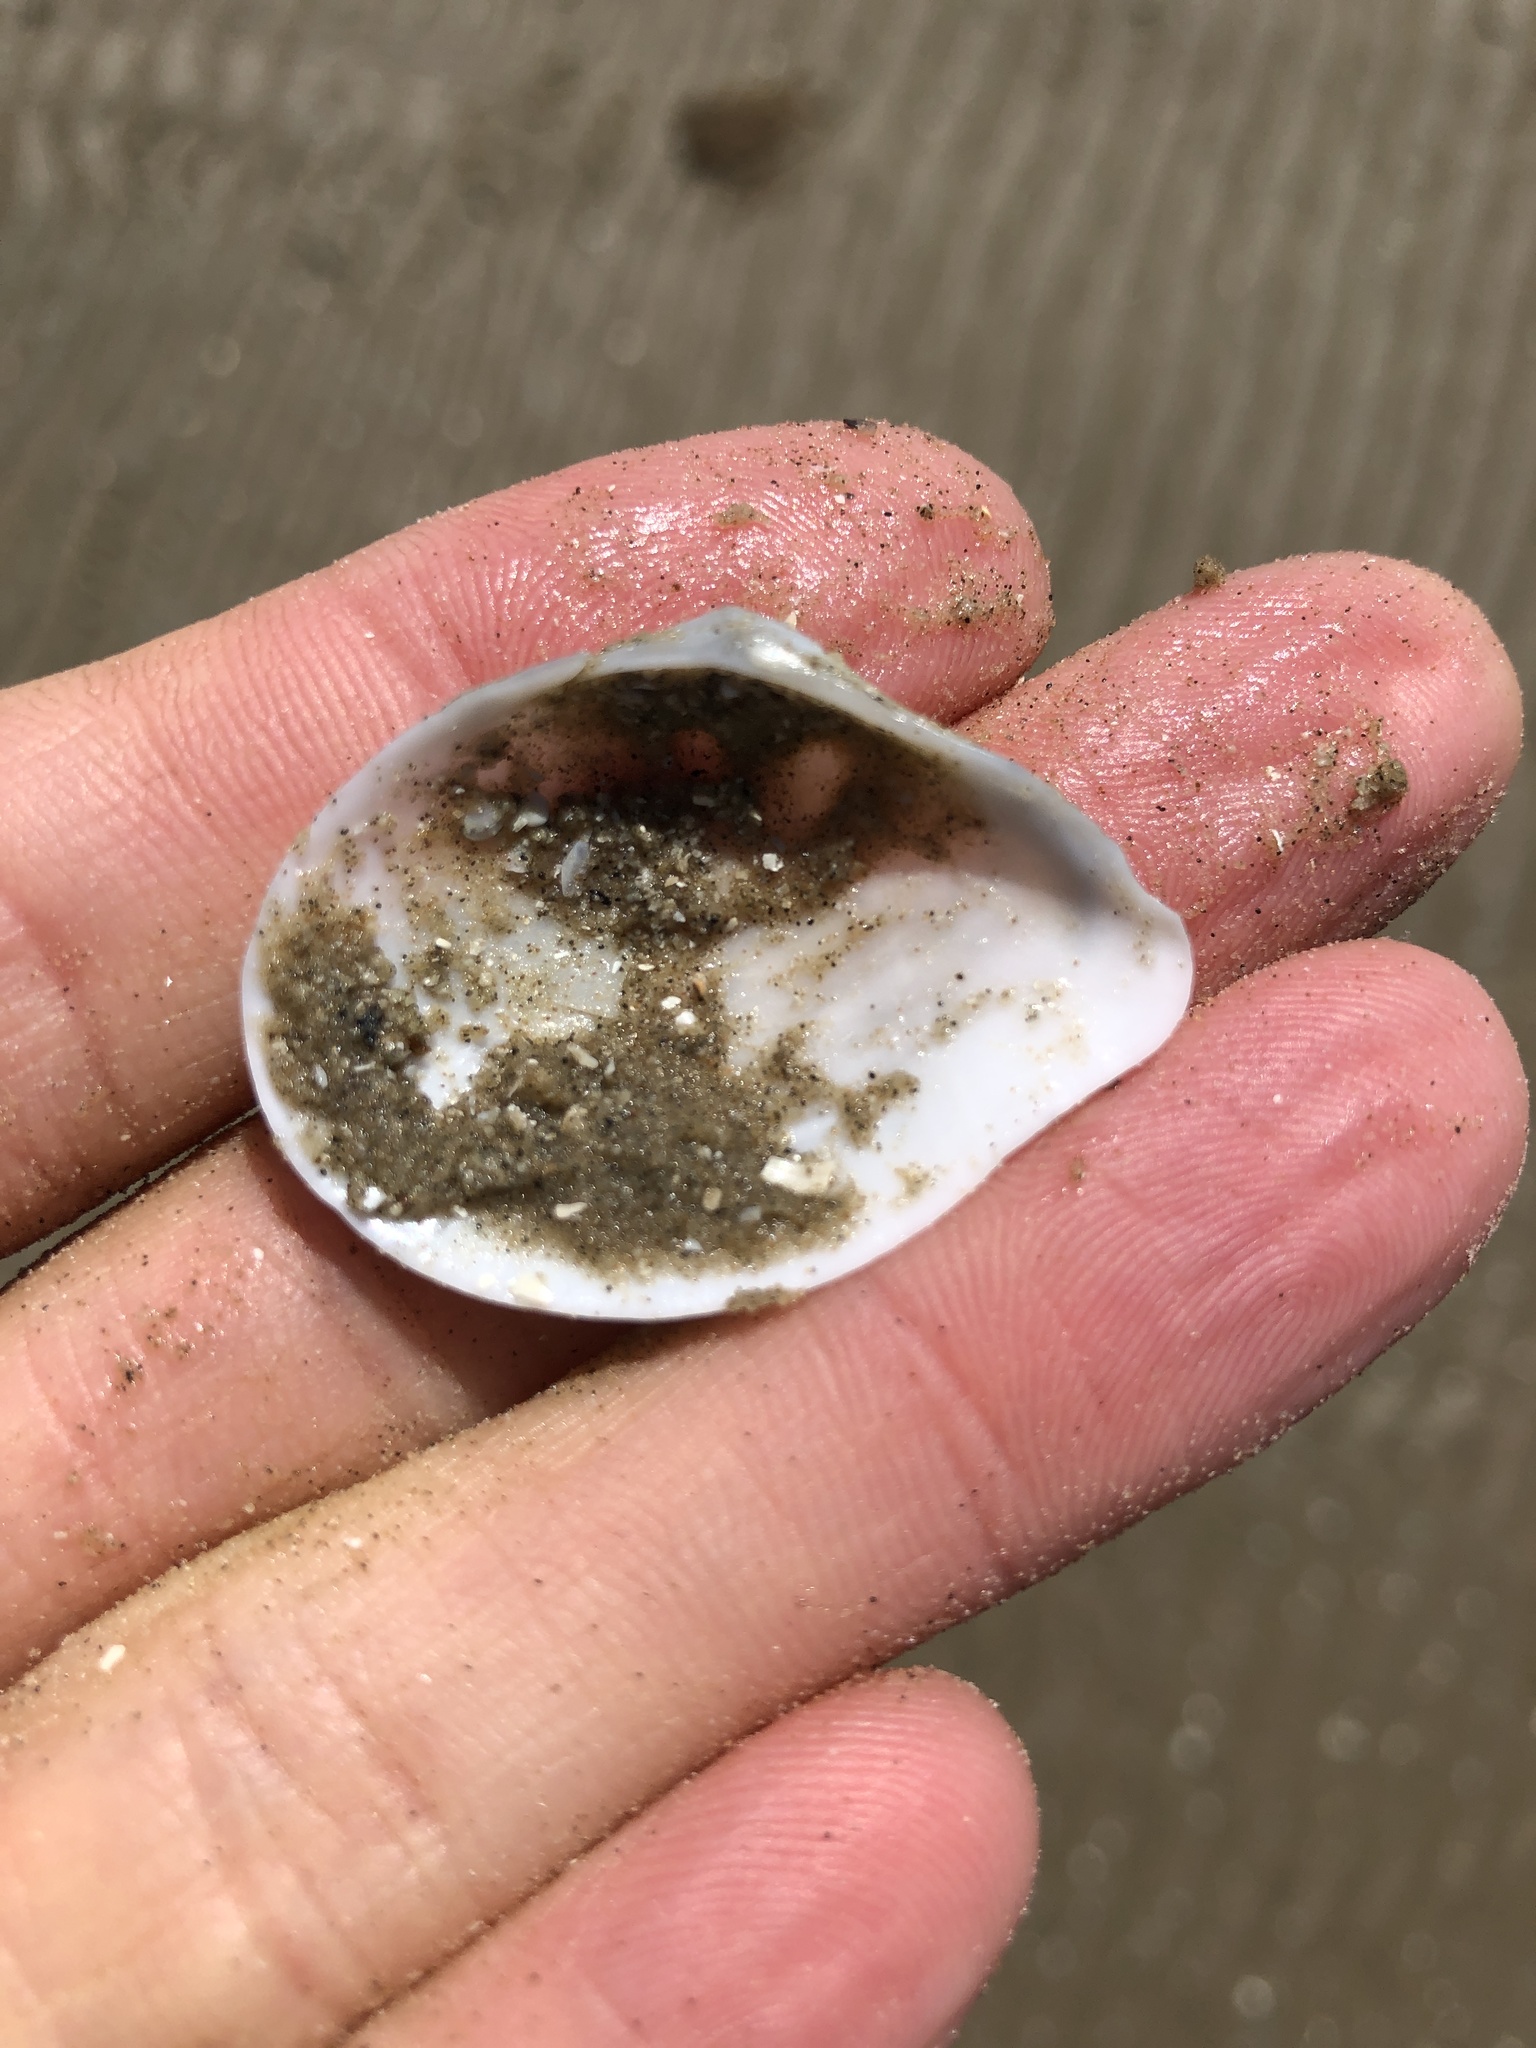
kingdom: Animalia
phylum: Mollusca
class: Bivalvia
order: Cardiida
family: Tellinidae
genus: Austromacoma
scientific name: Austromacoma constricta
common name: Constricted macoma
